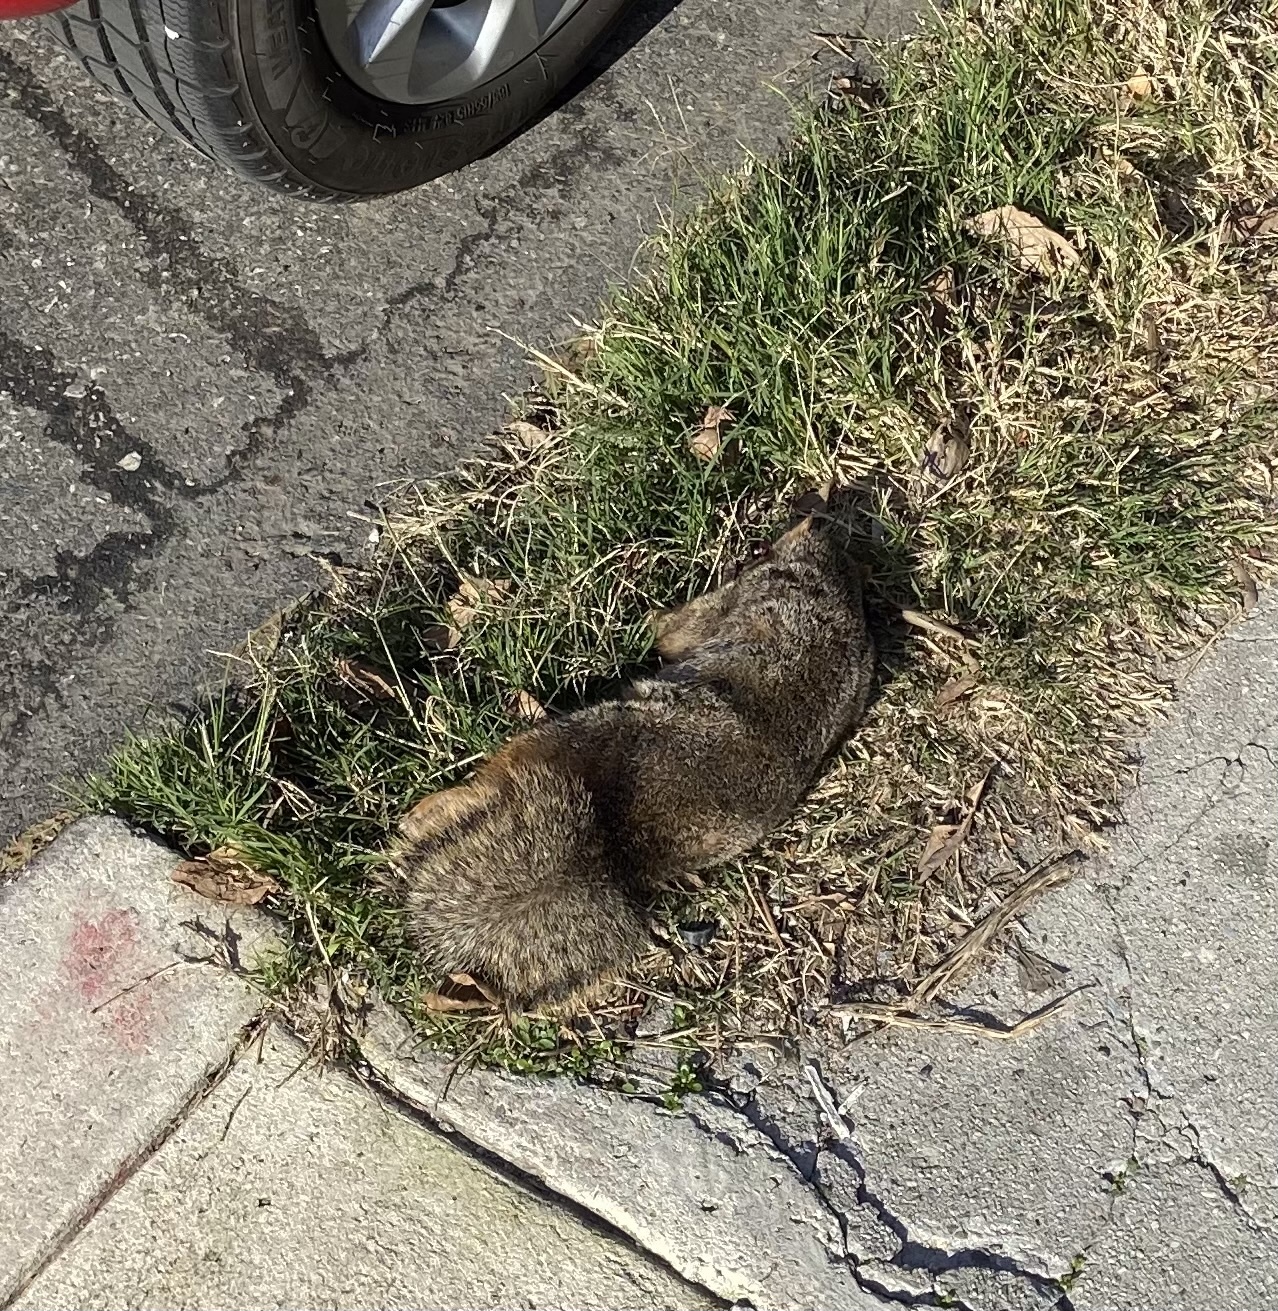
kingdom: Animalia
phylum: Chordata
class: Mammalia
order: Rodentia
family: Sciuridae
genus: Sciurus
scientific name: Sciurus niger
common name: Fox squirrel
